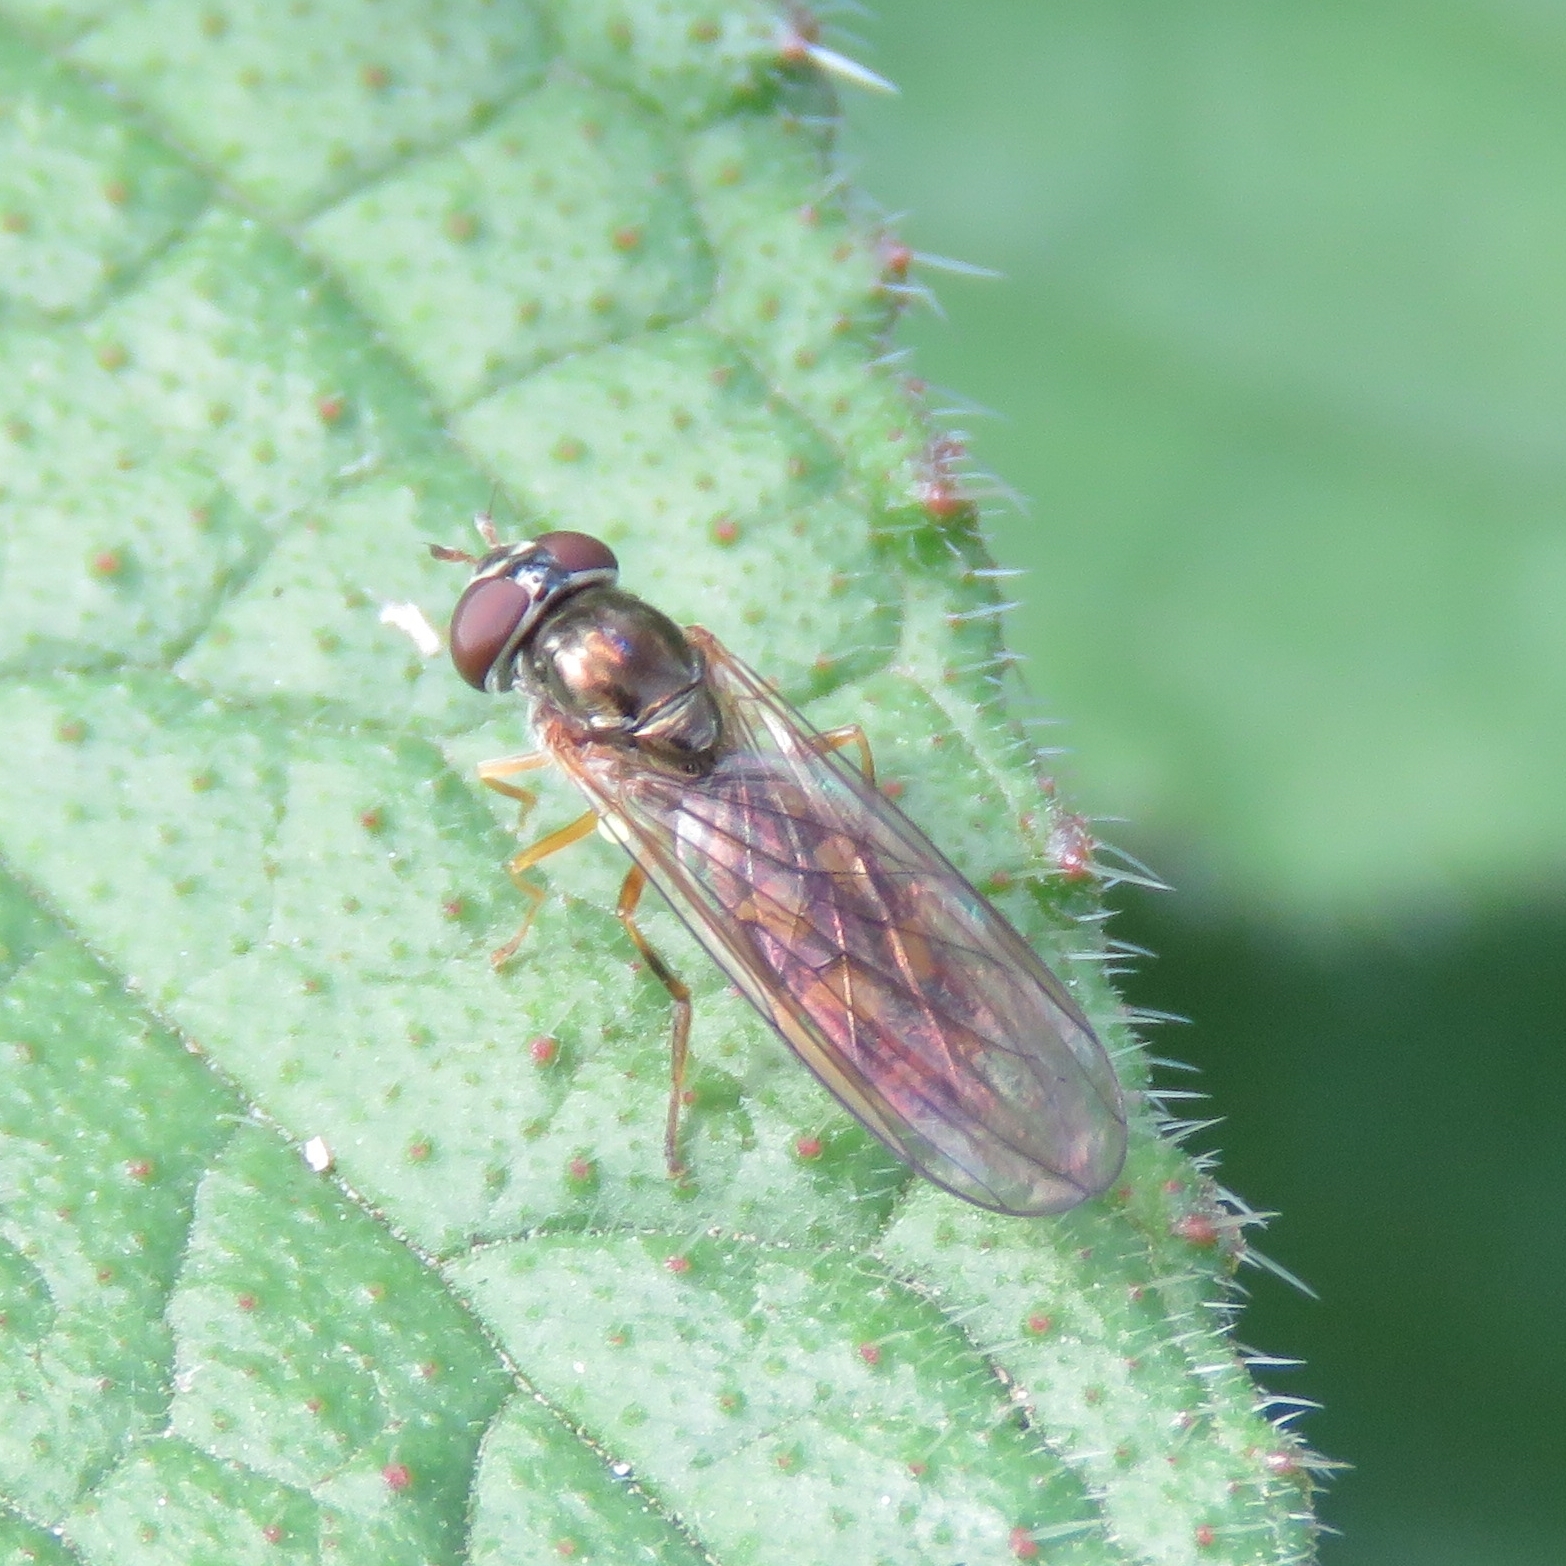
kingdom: Animalia
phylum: Arthropoda
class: Insecta
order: Diptera
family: Syrphidae
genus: Melanostoma
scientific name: Melanostoma scalare
